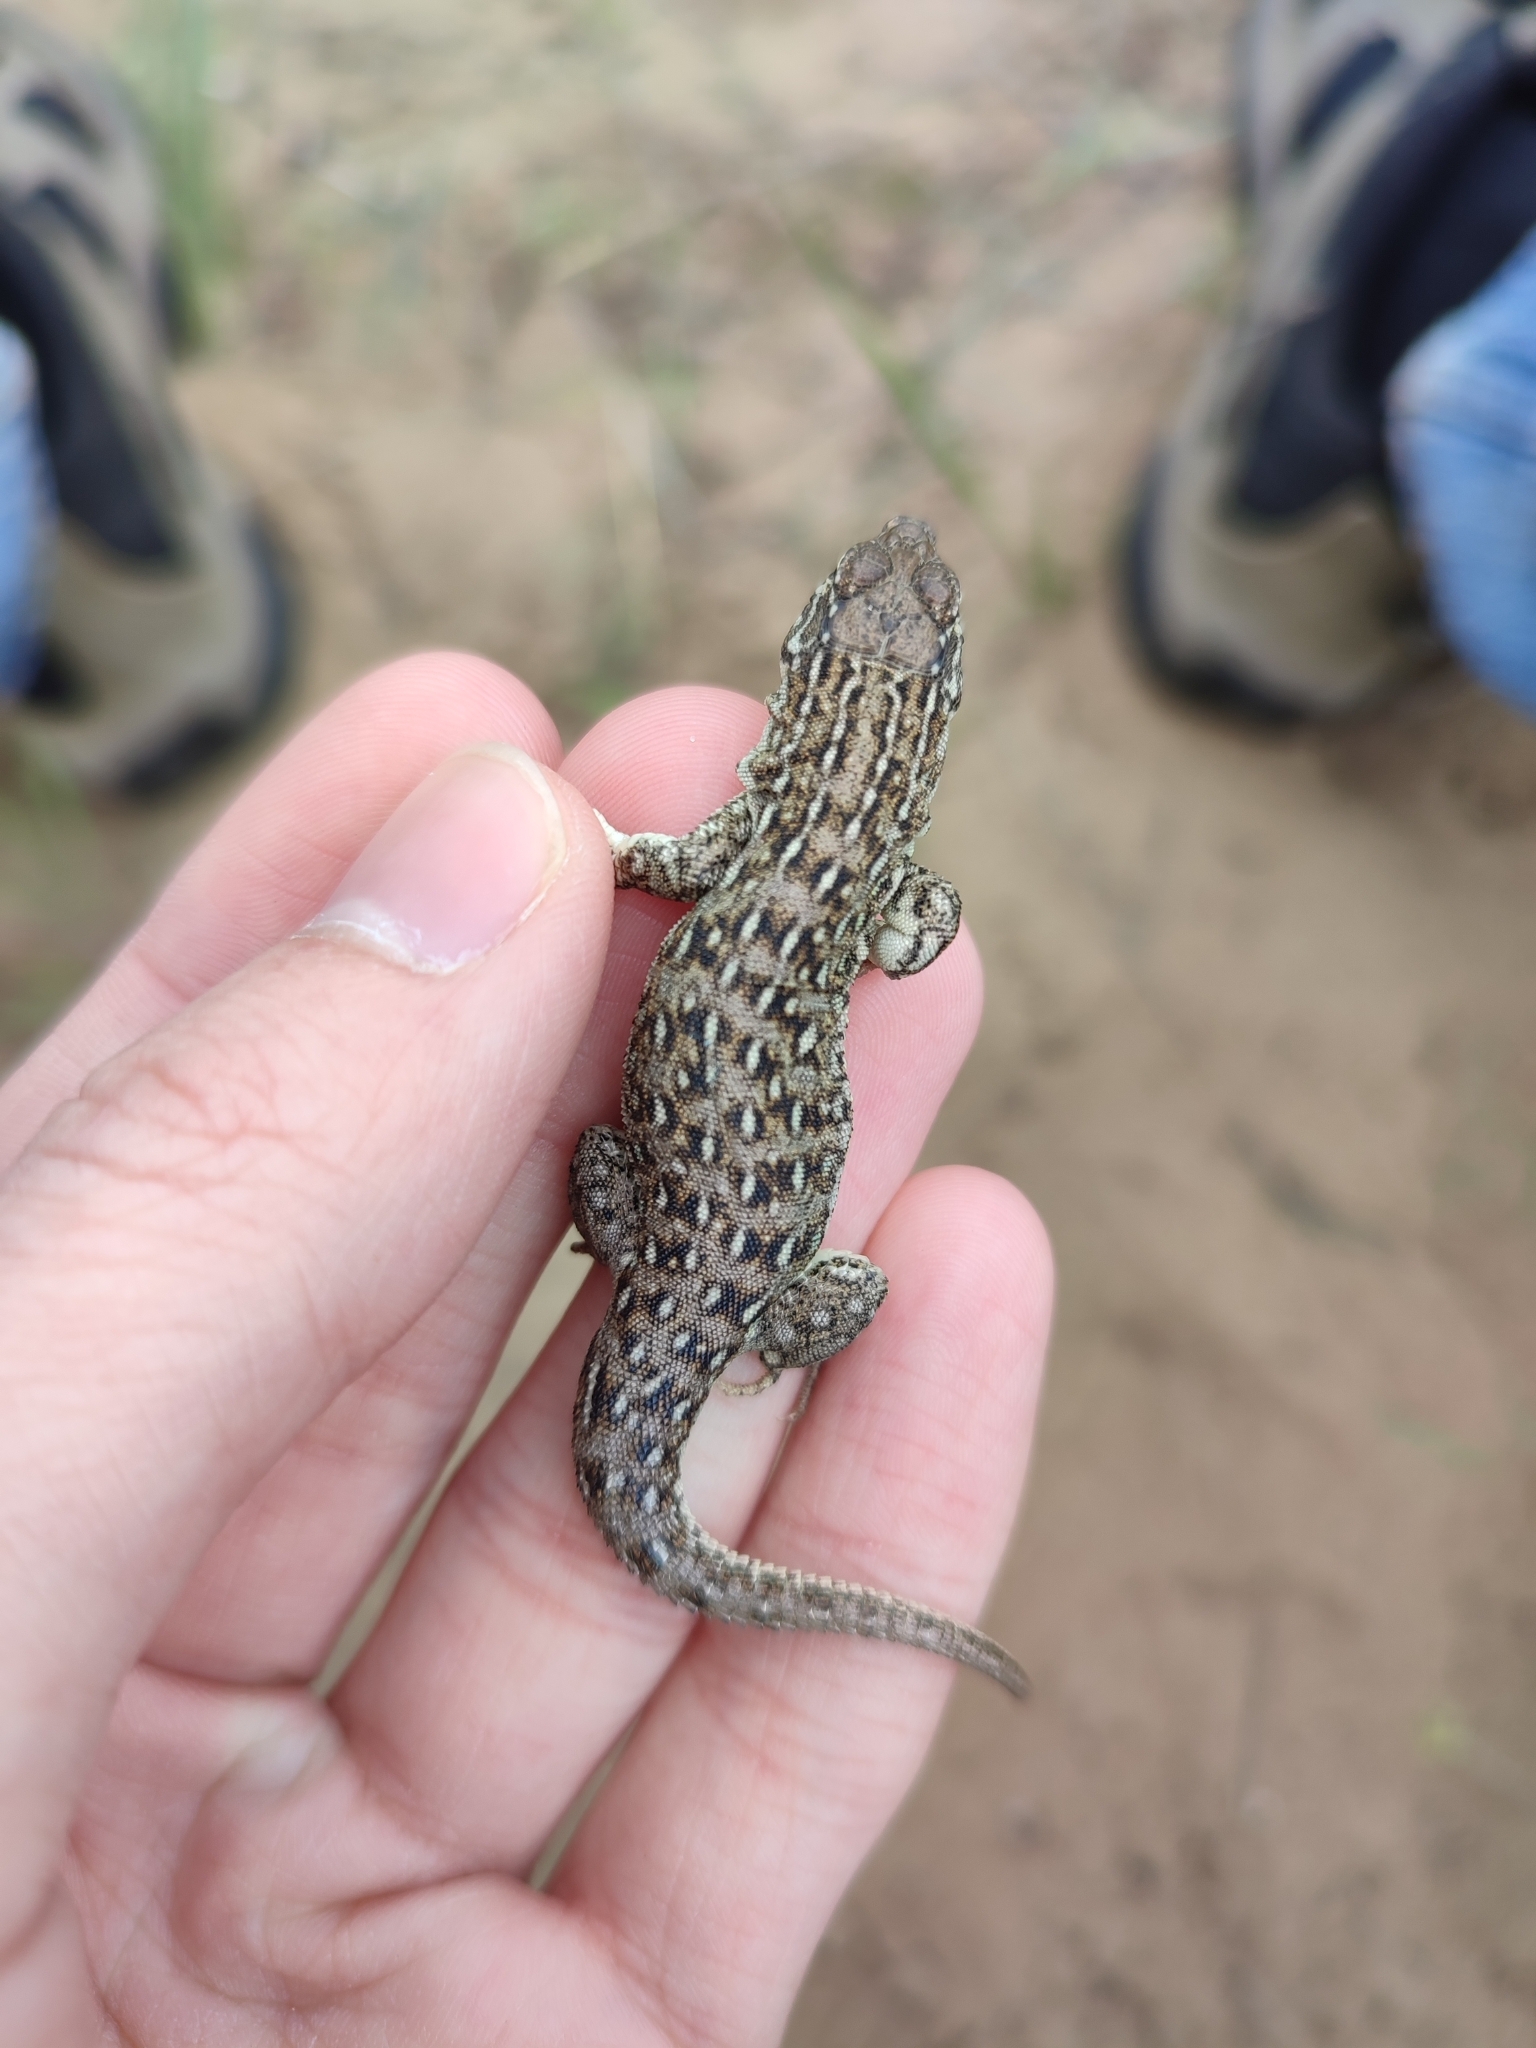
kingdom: Animalia
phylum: Chordata
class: Squamata
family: Lacertidae
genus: Eremias
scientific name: Eremias arguta
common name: Racerunner
